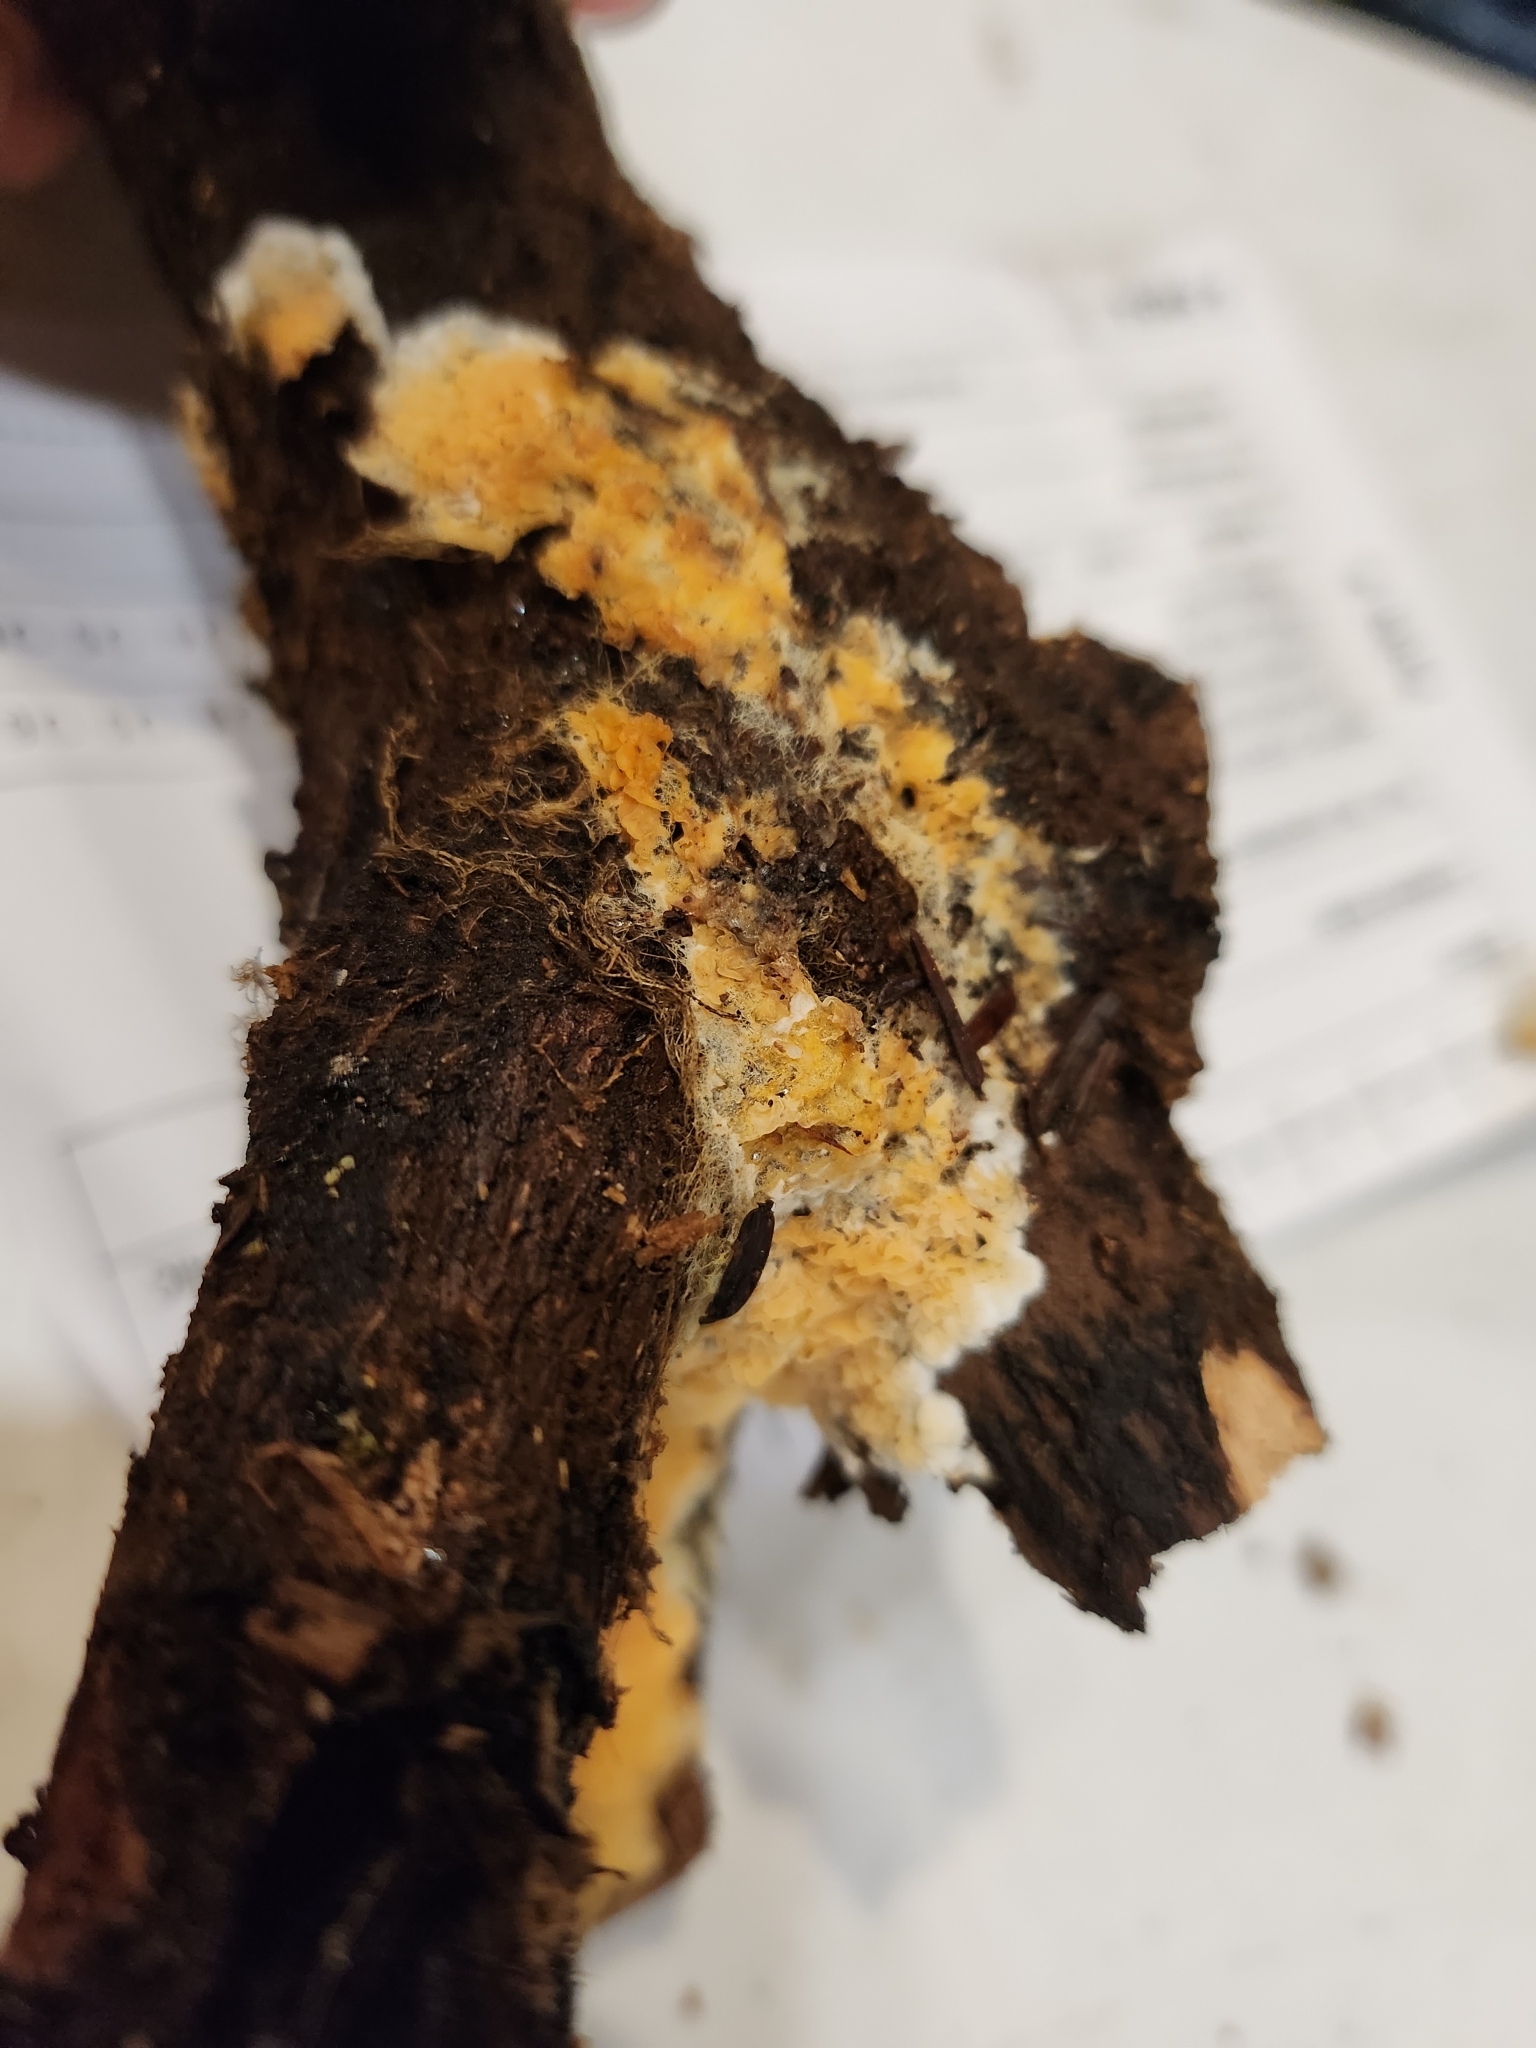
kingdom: Fungi
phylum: Basidiomycota
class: Agaricomycetes
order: Boletales
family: Hygrophoropsidaceae
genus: Leucogyrophana
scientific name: Leucogyrophana mollusca
